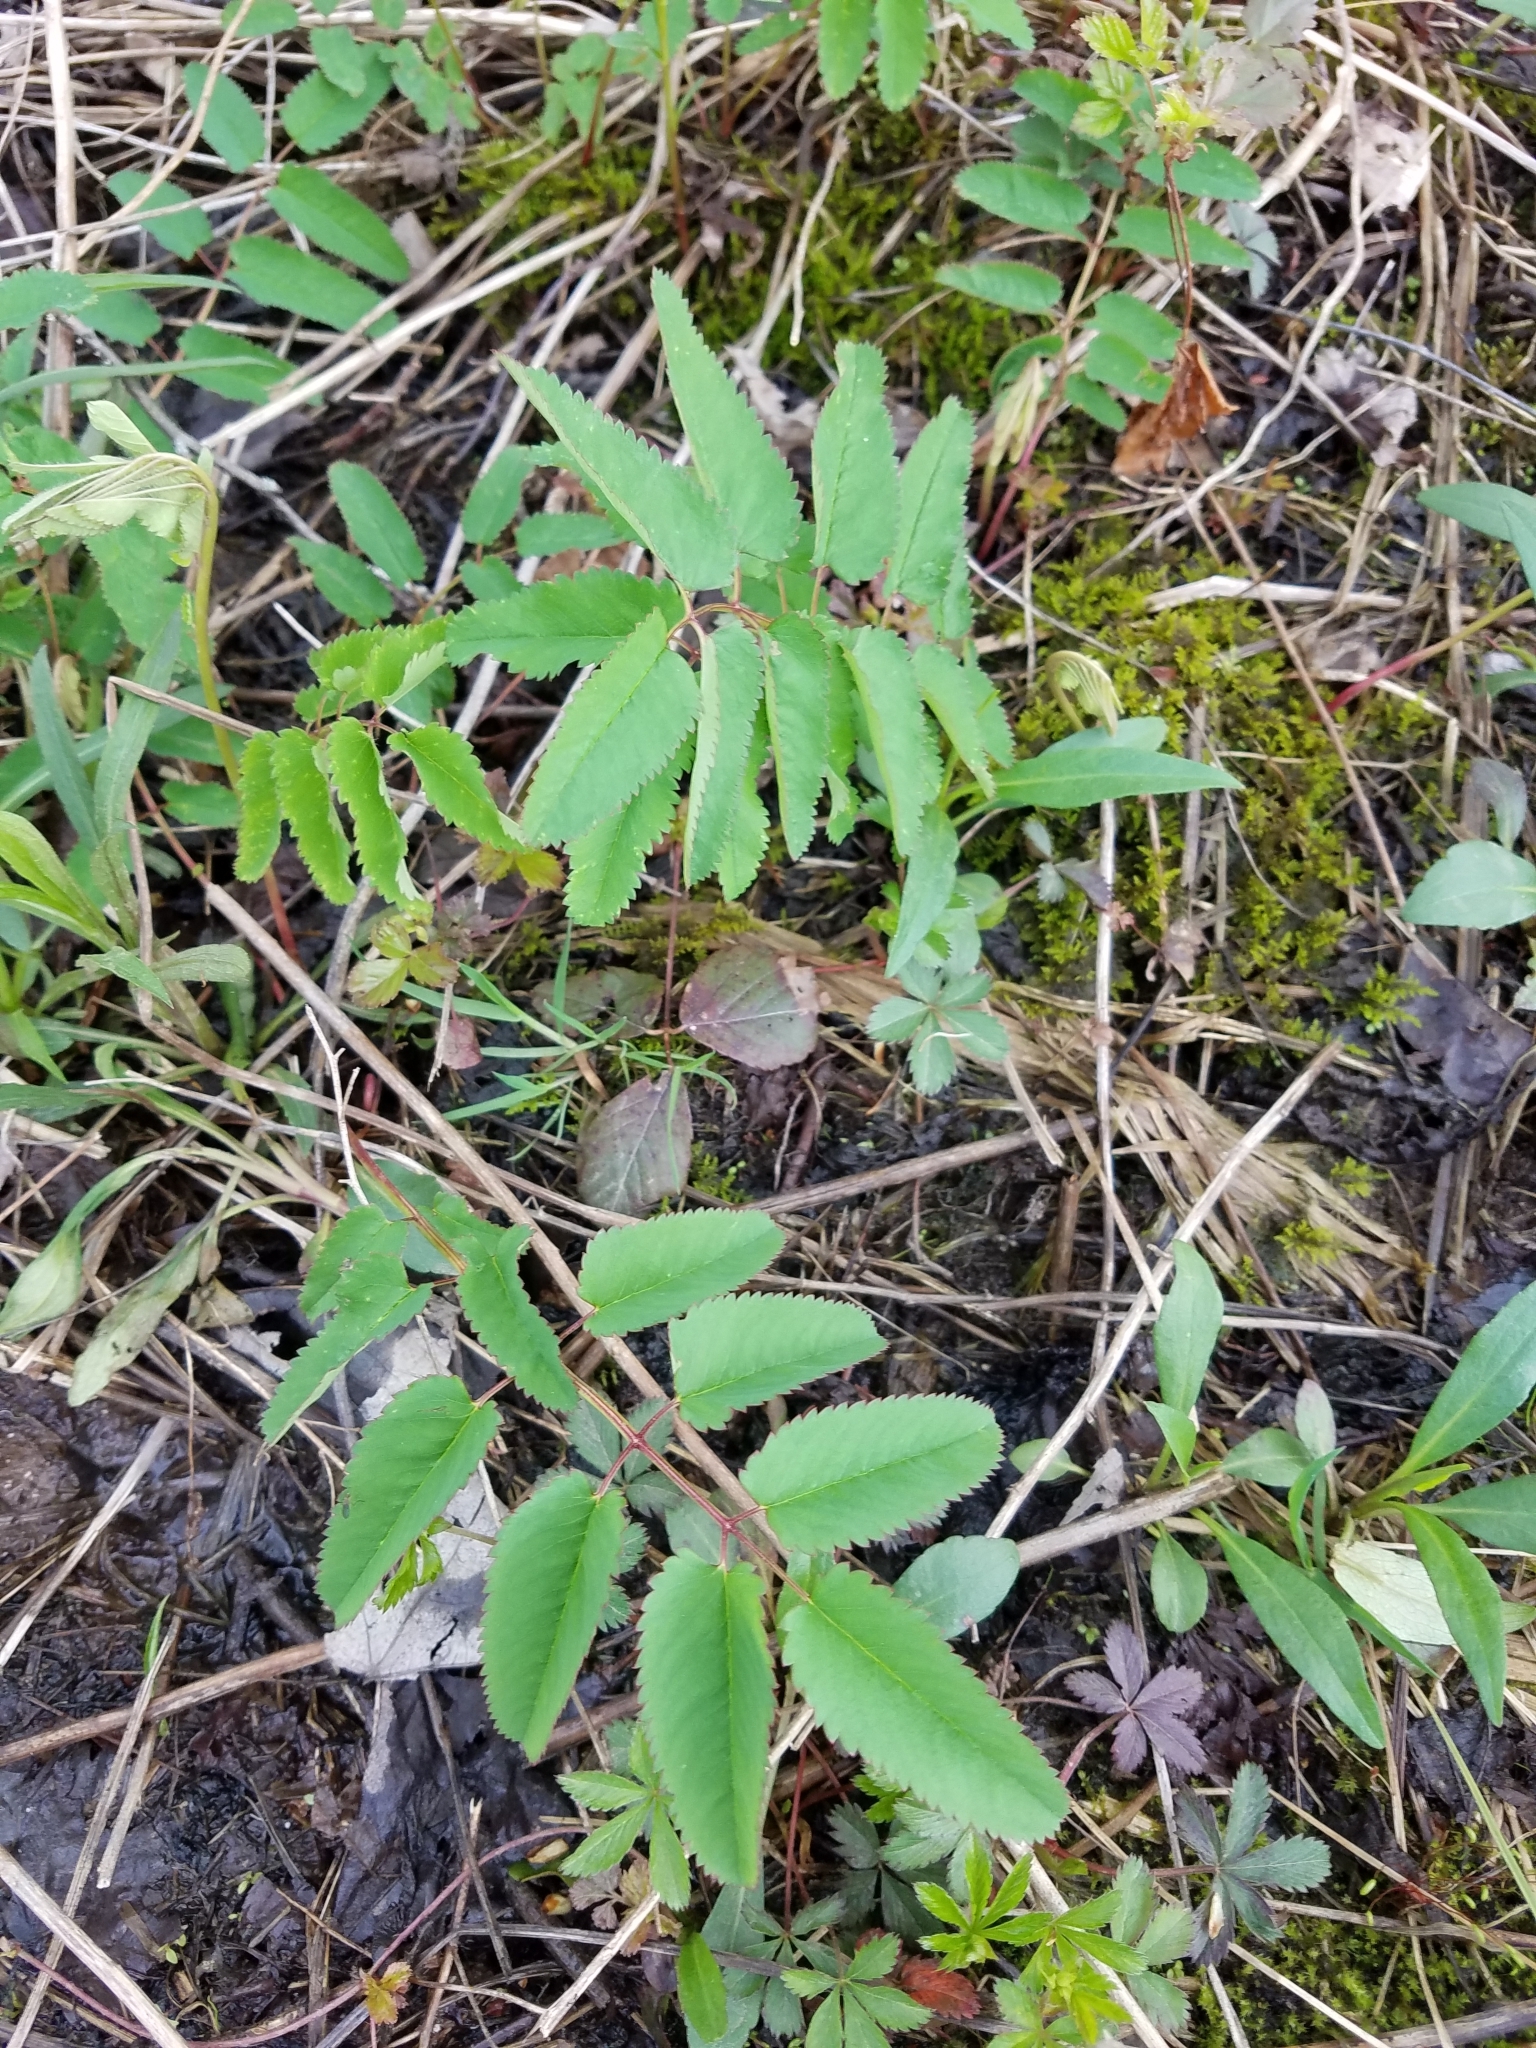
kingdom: Plantae
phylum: Tracheophyta
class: Magnoliopsida
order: Rosales
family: Rosaceae
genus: Sanguisorba
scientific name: Sanguisorba canadensis
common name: White burnet
